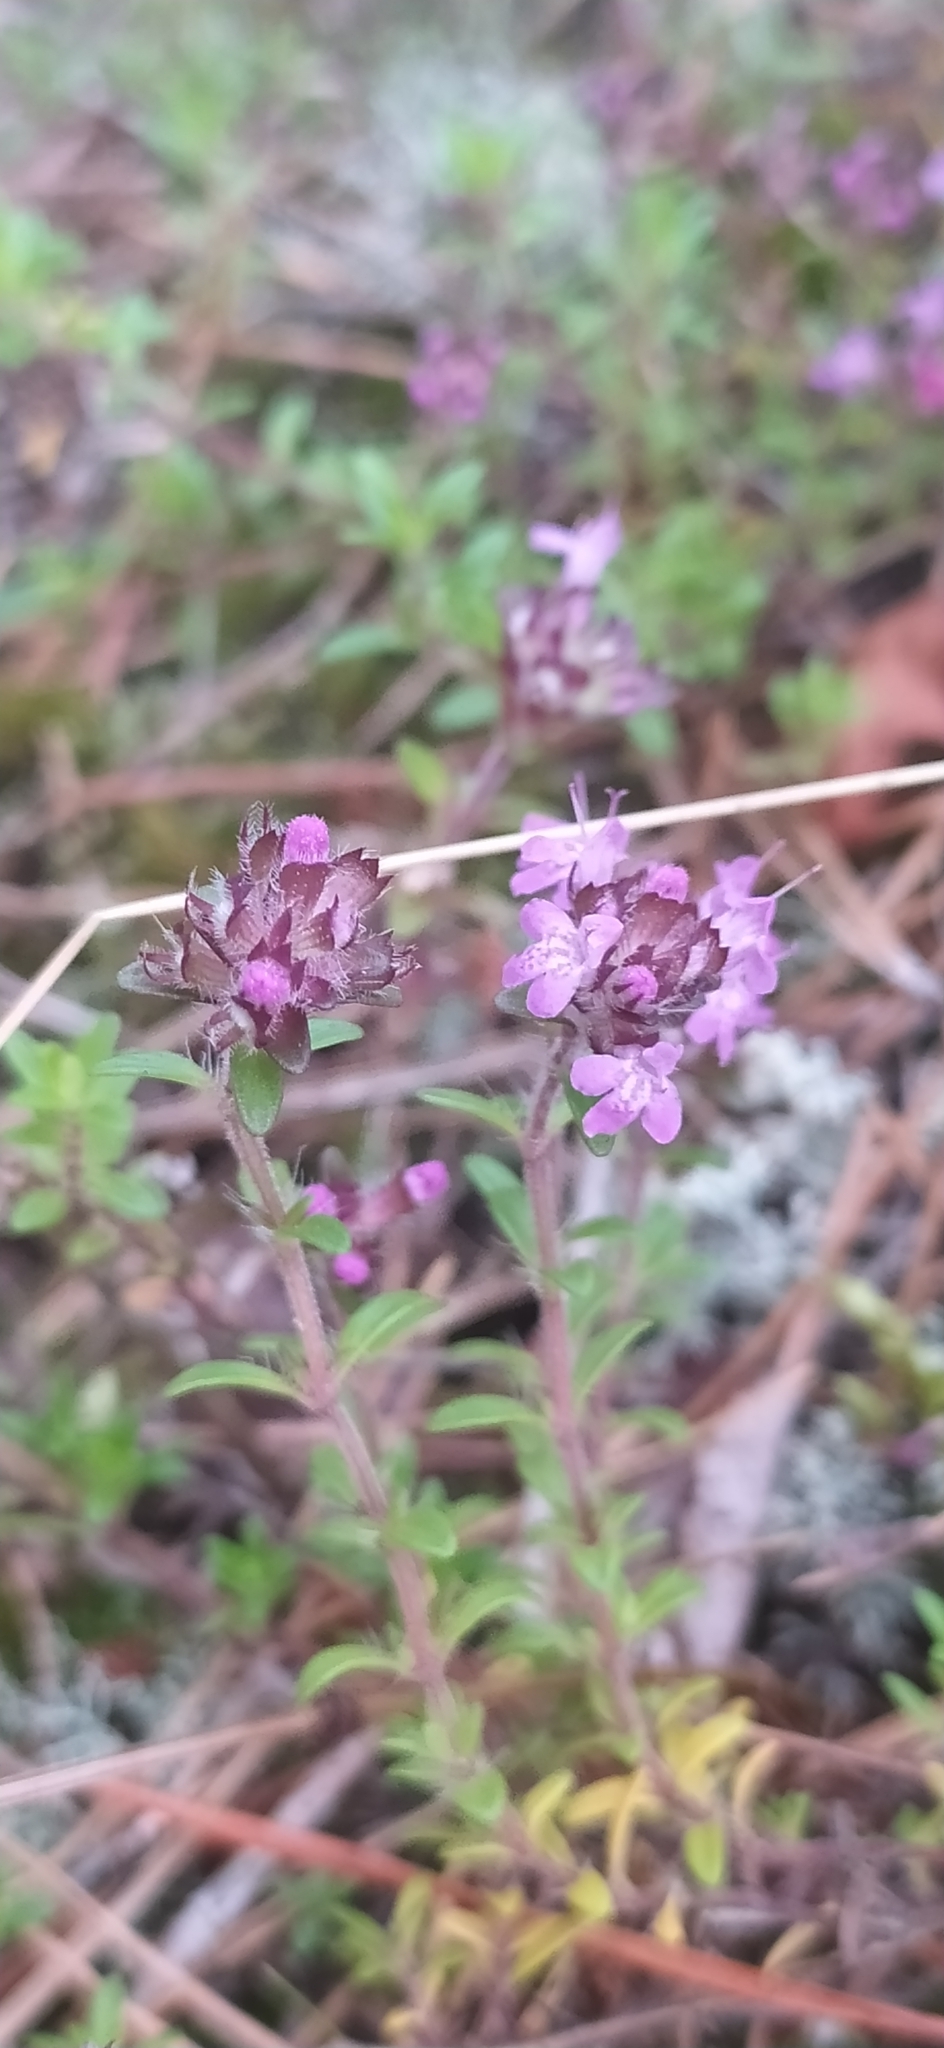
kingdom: Plantae
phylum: Tracheophyta
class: Magnoliopsida
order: Lamiales
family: Lamiaceae
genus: Thymus
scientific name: Thymus serpyllum
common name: Breckland thyme
